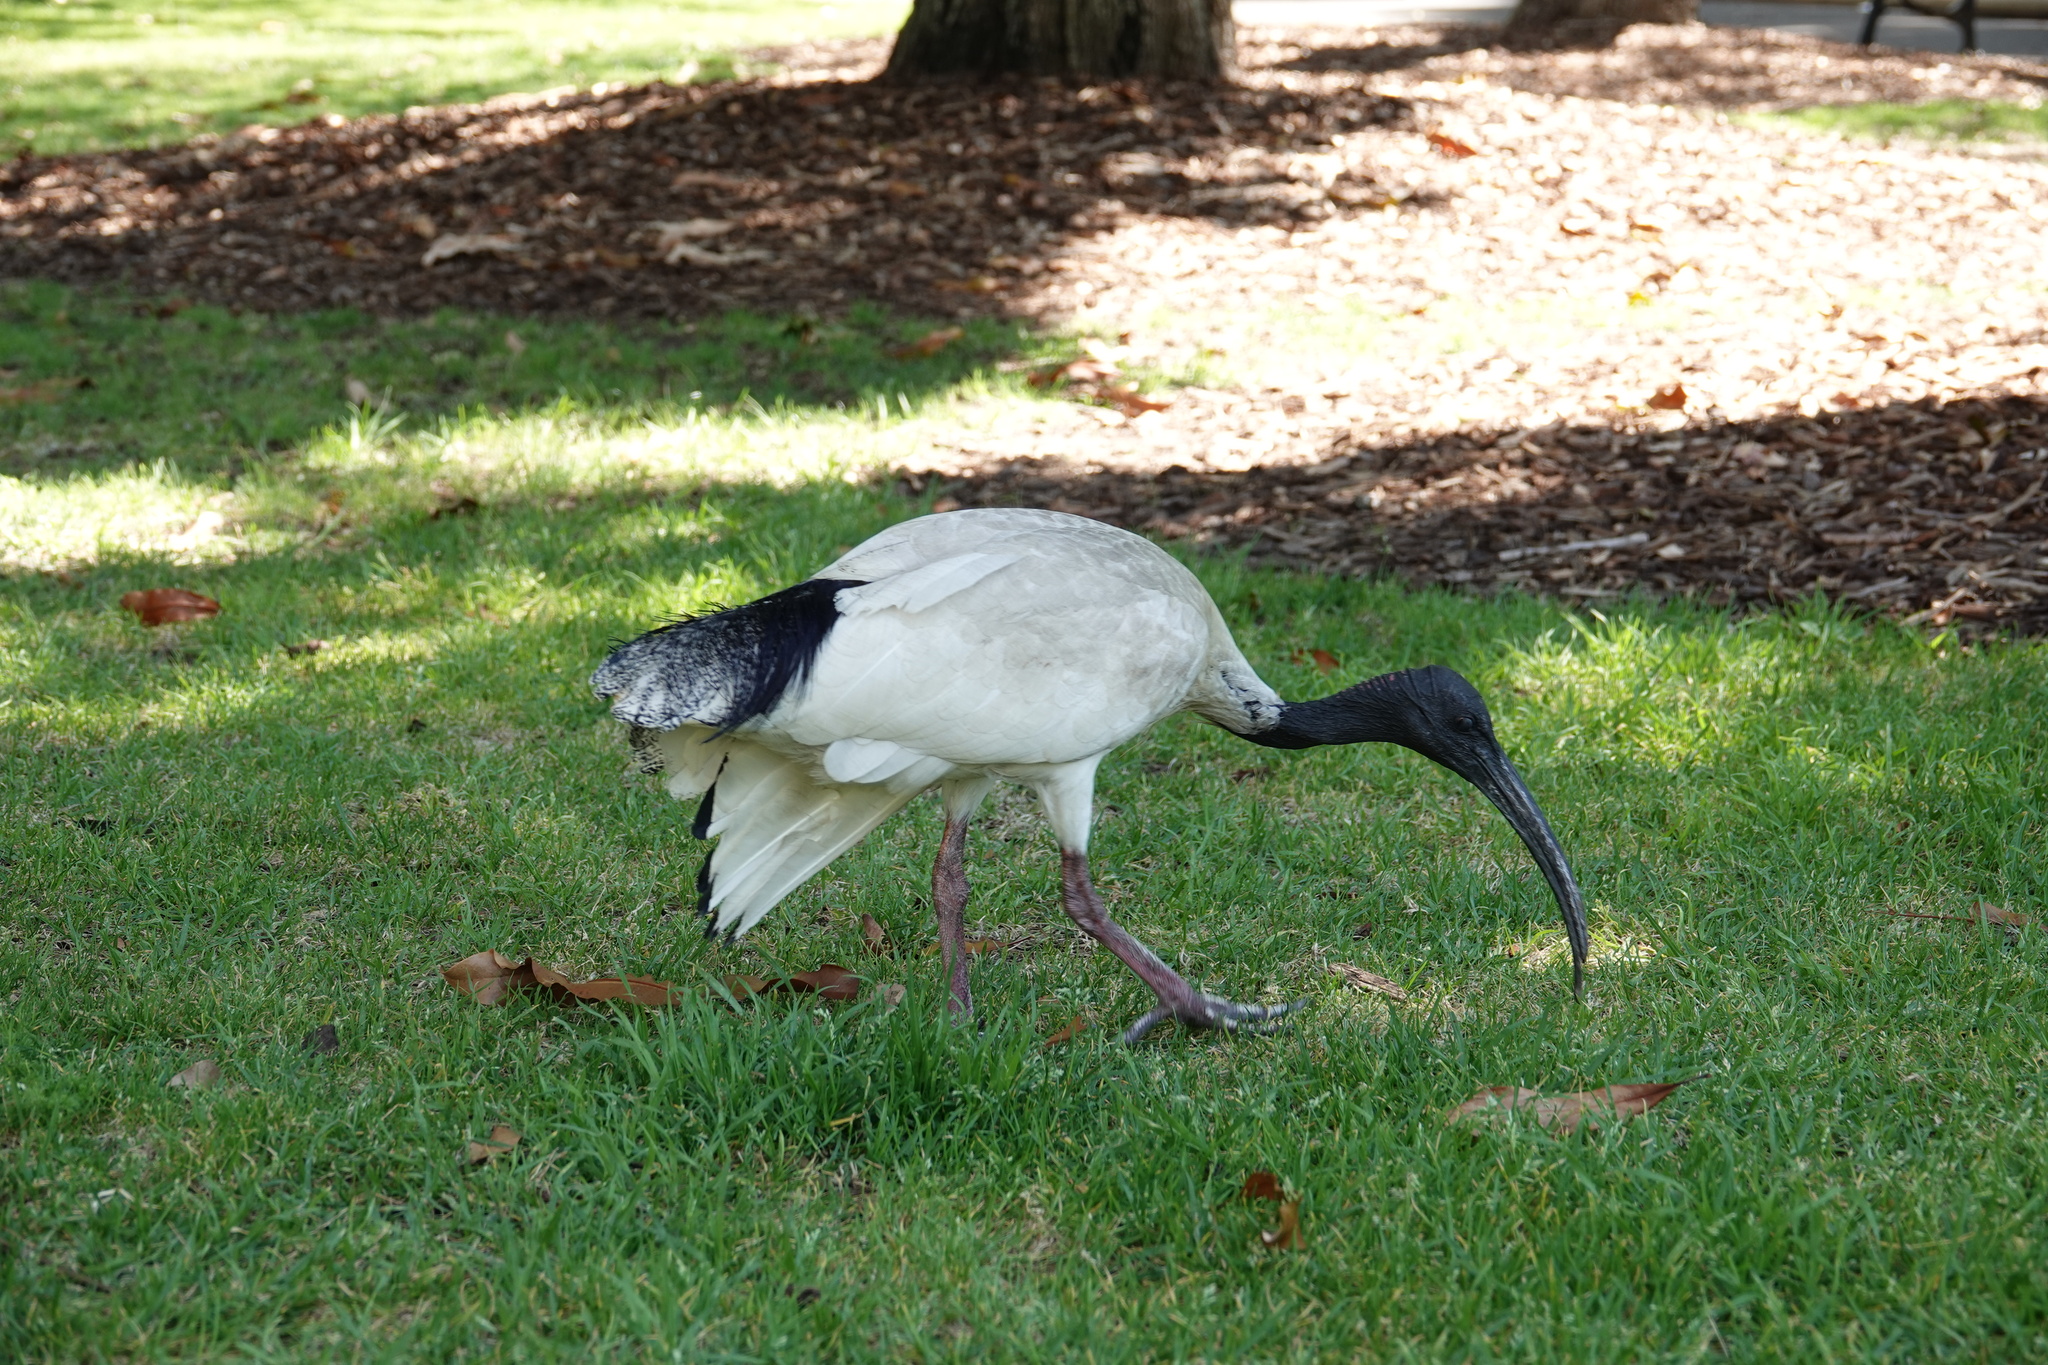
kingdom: Animalia
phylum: Chordata
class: Aves
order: Pelecaniformes
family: Threskiornithidae
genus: Threskiornis
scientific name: Threskiornis molucca
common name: Australian white ibis
